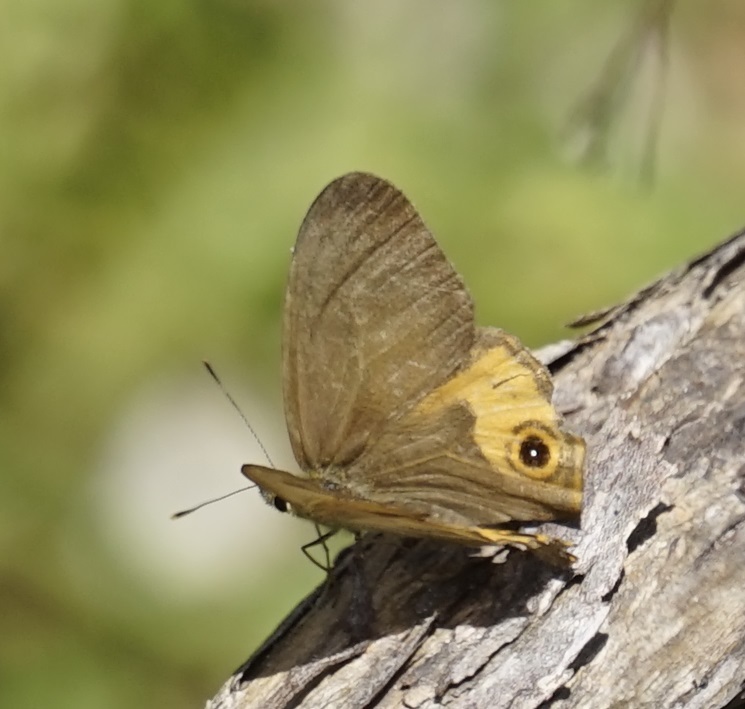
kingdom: Animalia
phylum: Arthropoda
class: Insecta
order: Lepidoptera
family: Nymphalidae
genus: Hypocysta
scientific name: Hypocysta metirius
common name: Brown ringlet
